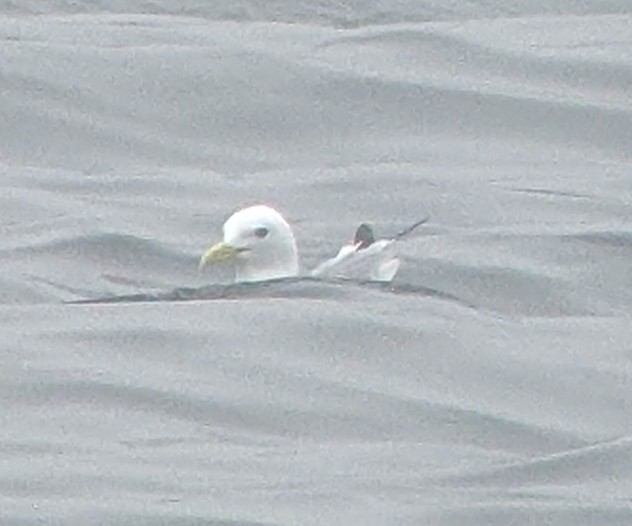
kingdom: Animalia
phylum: Chordata
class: Aves
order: Charadriiformes
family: Laridae
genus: Rissa
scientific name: Rissa tridactyla
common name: Black-legged kittiwake
